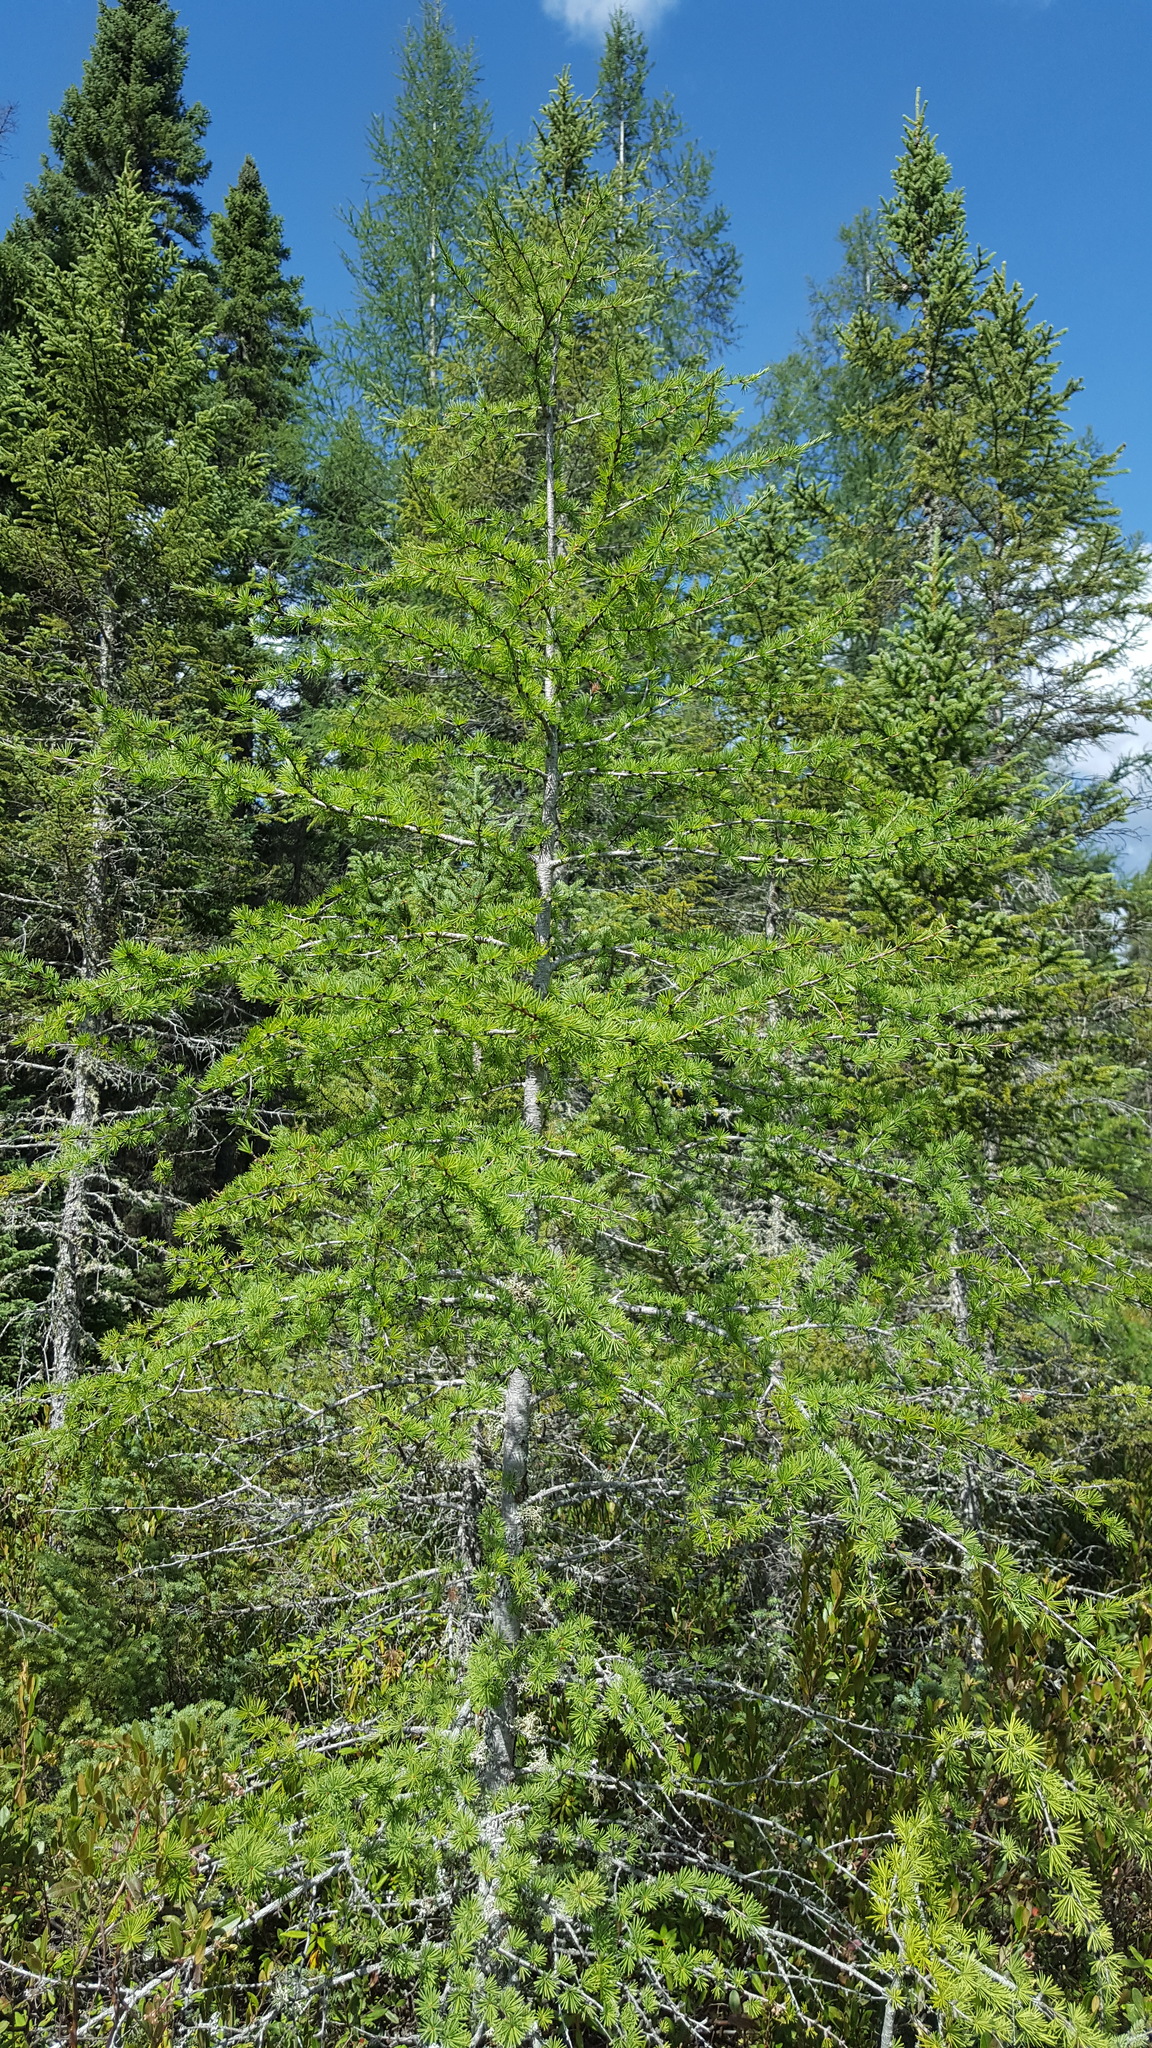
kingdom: Plantae
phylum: Tracheophyta
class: Pinopsida
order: Pinales
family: Pinaceae
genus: Larix
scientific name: Larix laricina
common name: American larch
